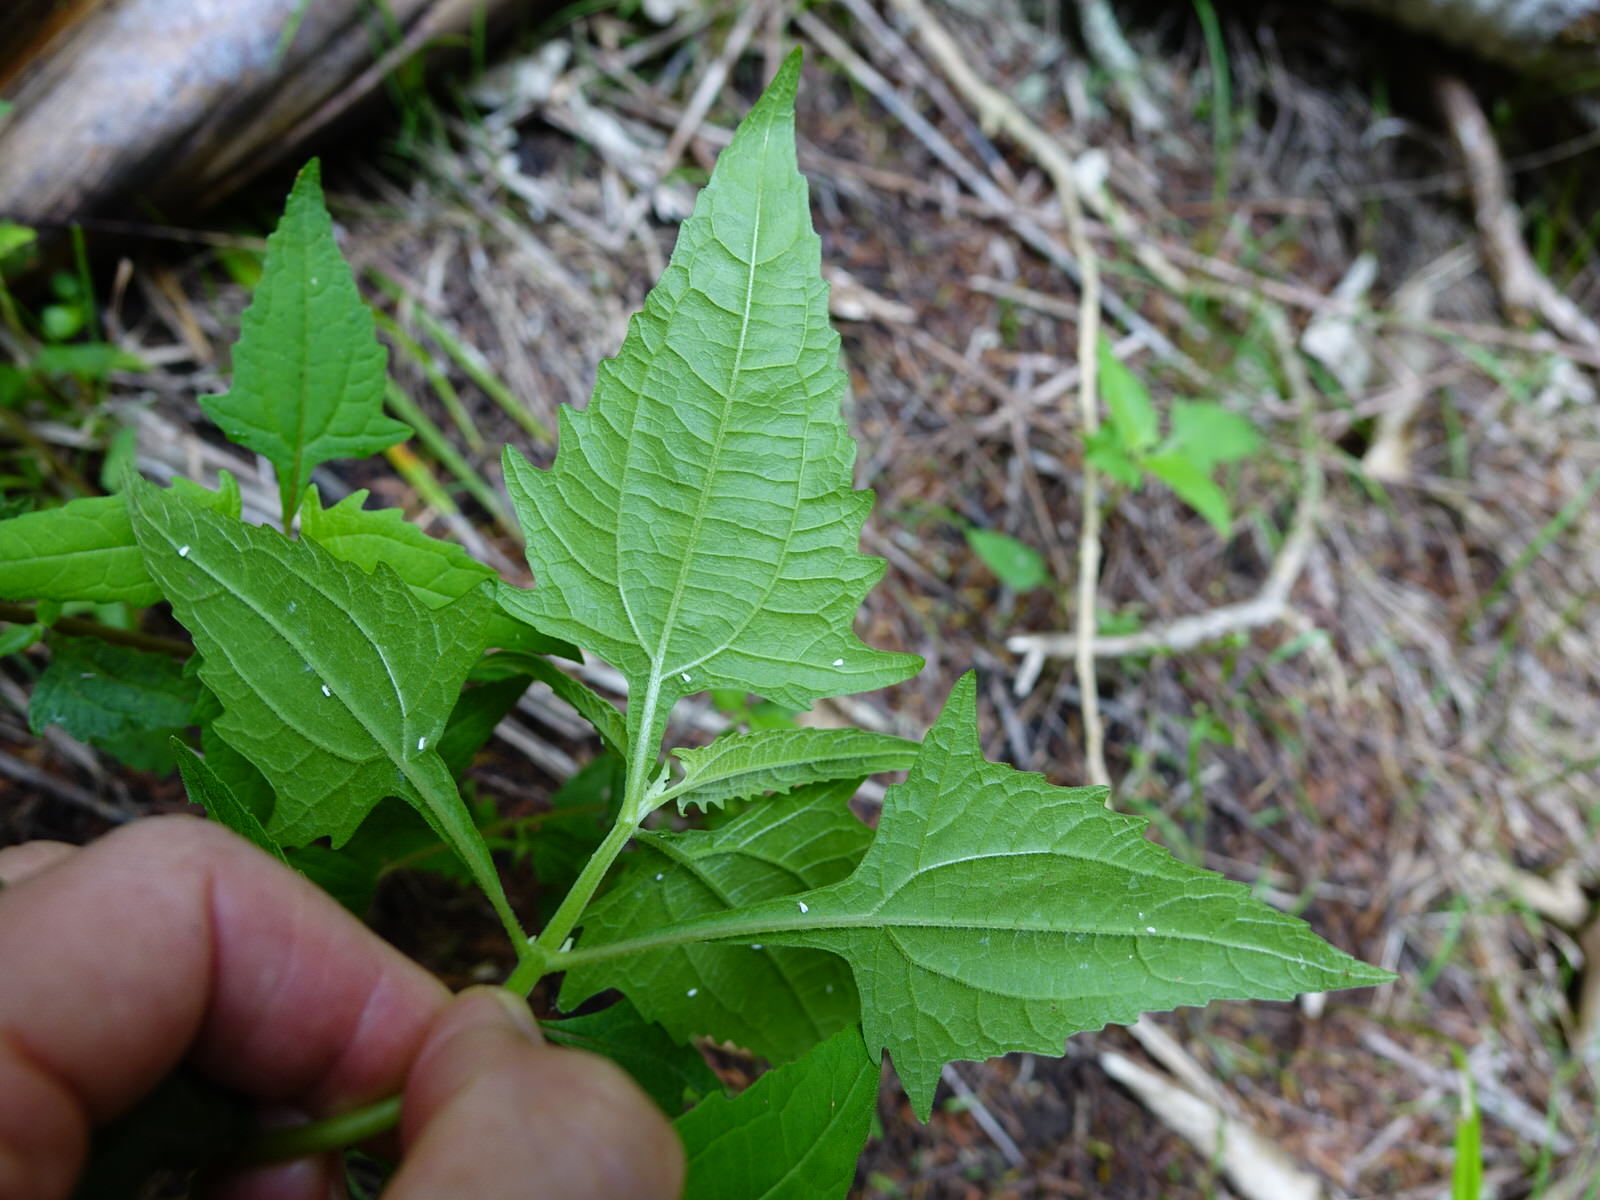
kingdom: Plantae
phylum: Tracheophyta
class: Magnoliopsida
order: Asterales
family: Asteraceae
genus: Sigesbeckia
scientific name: Sigesbeckia orientalis
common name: Eastern st paul's-wort
